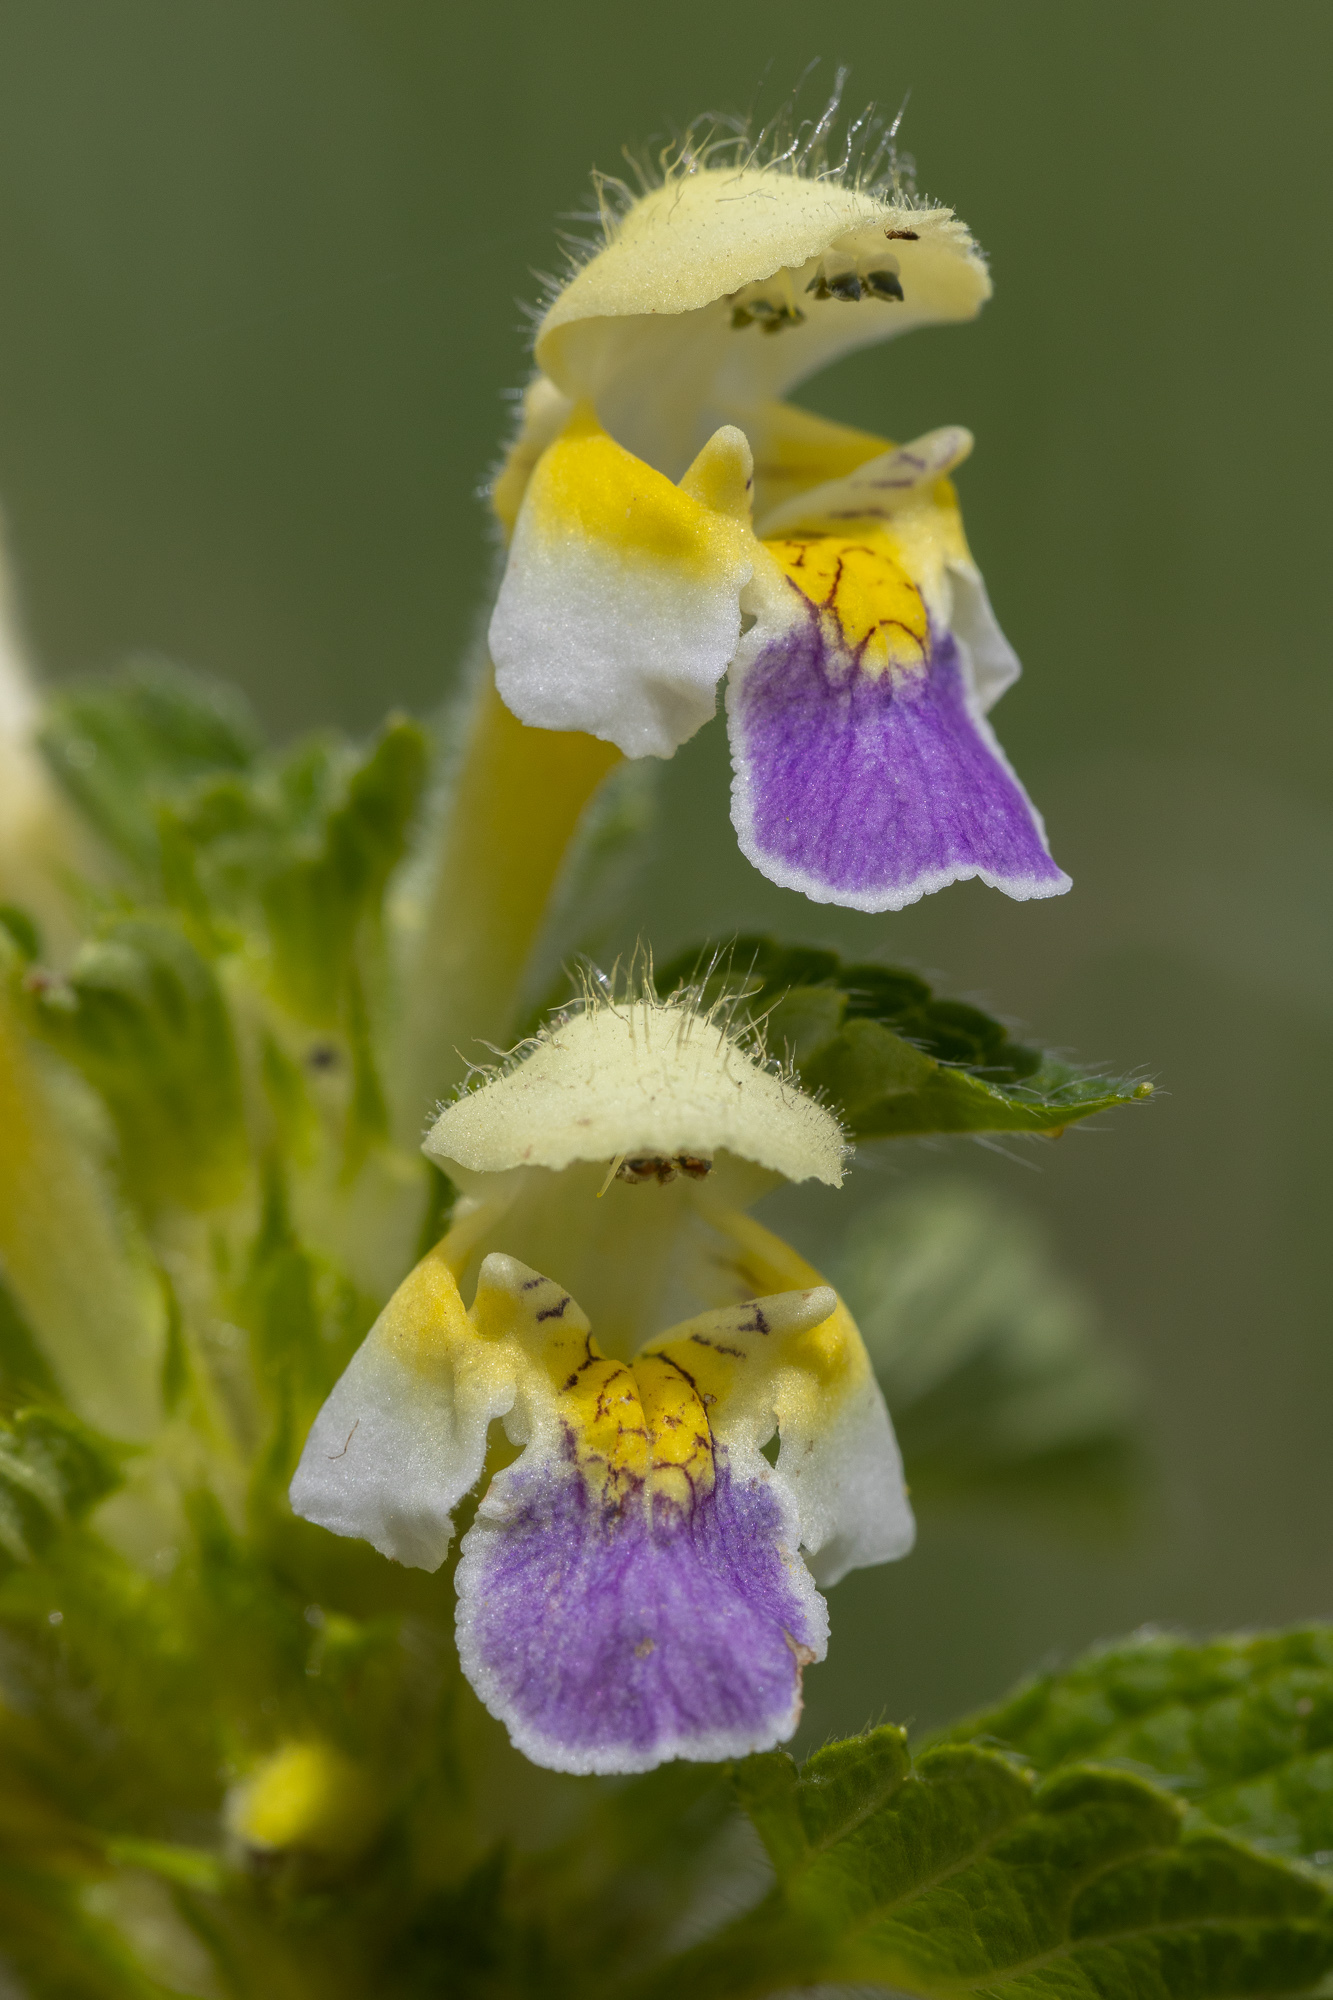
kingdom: Plantae
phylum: Tracheophyta
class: Magnoliopsida
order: Lamiales
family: Lamiaceae
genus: Galeopsis
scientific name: Galeopsis speciosa
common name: Large-flowered hemp-nettle
